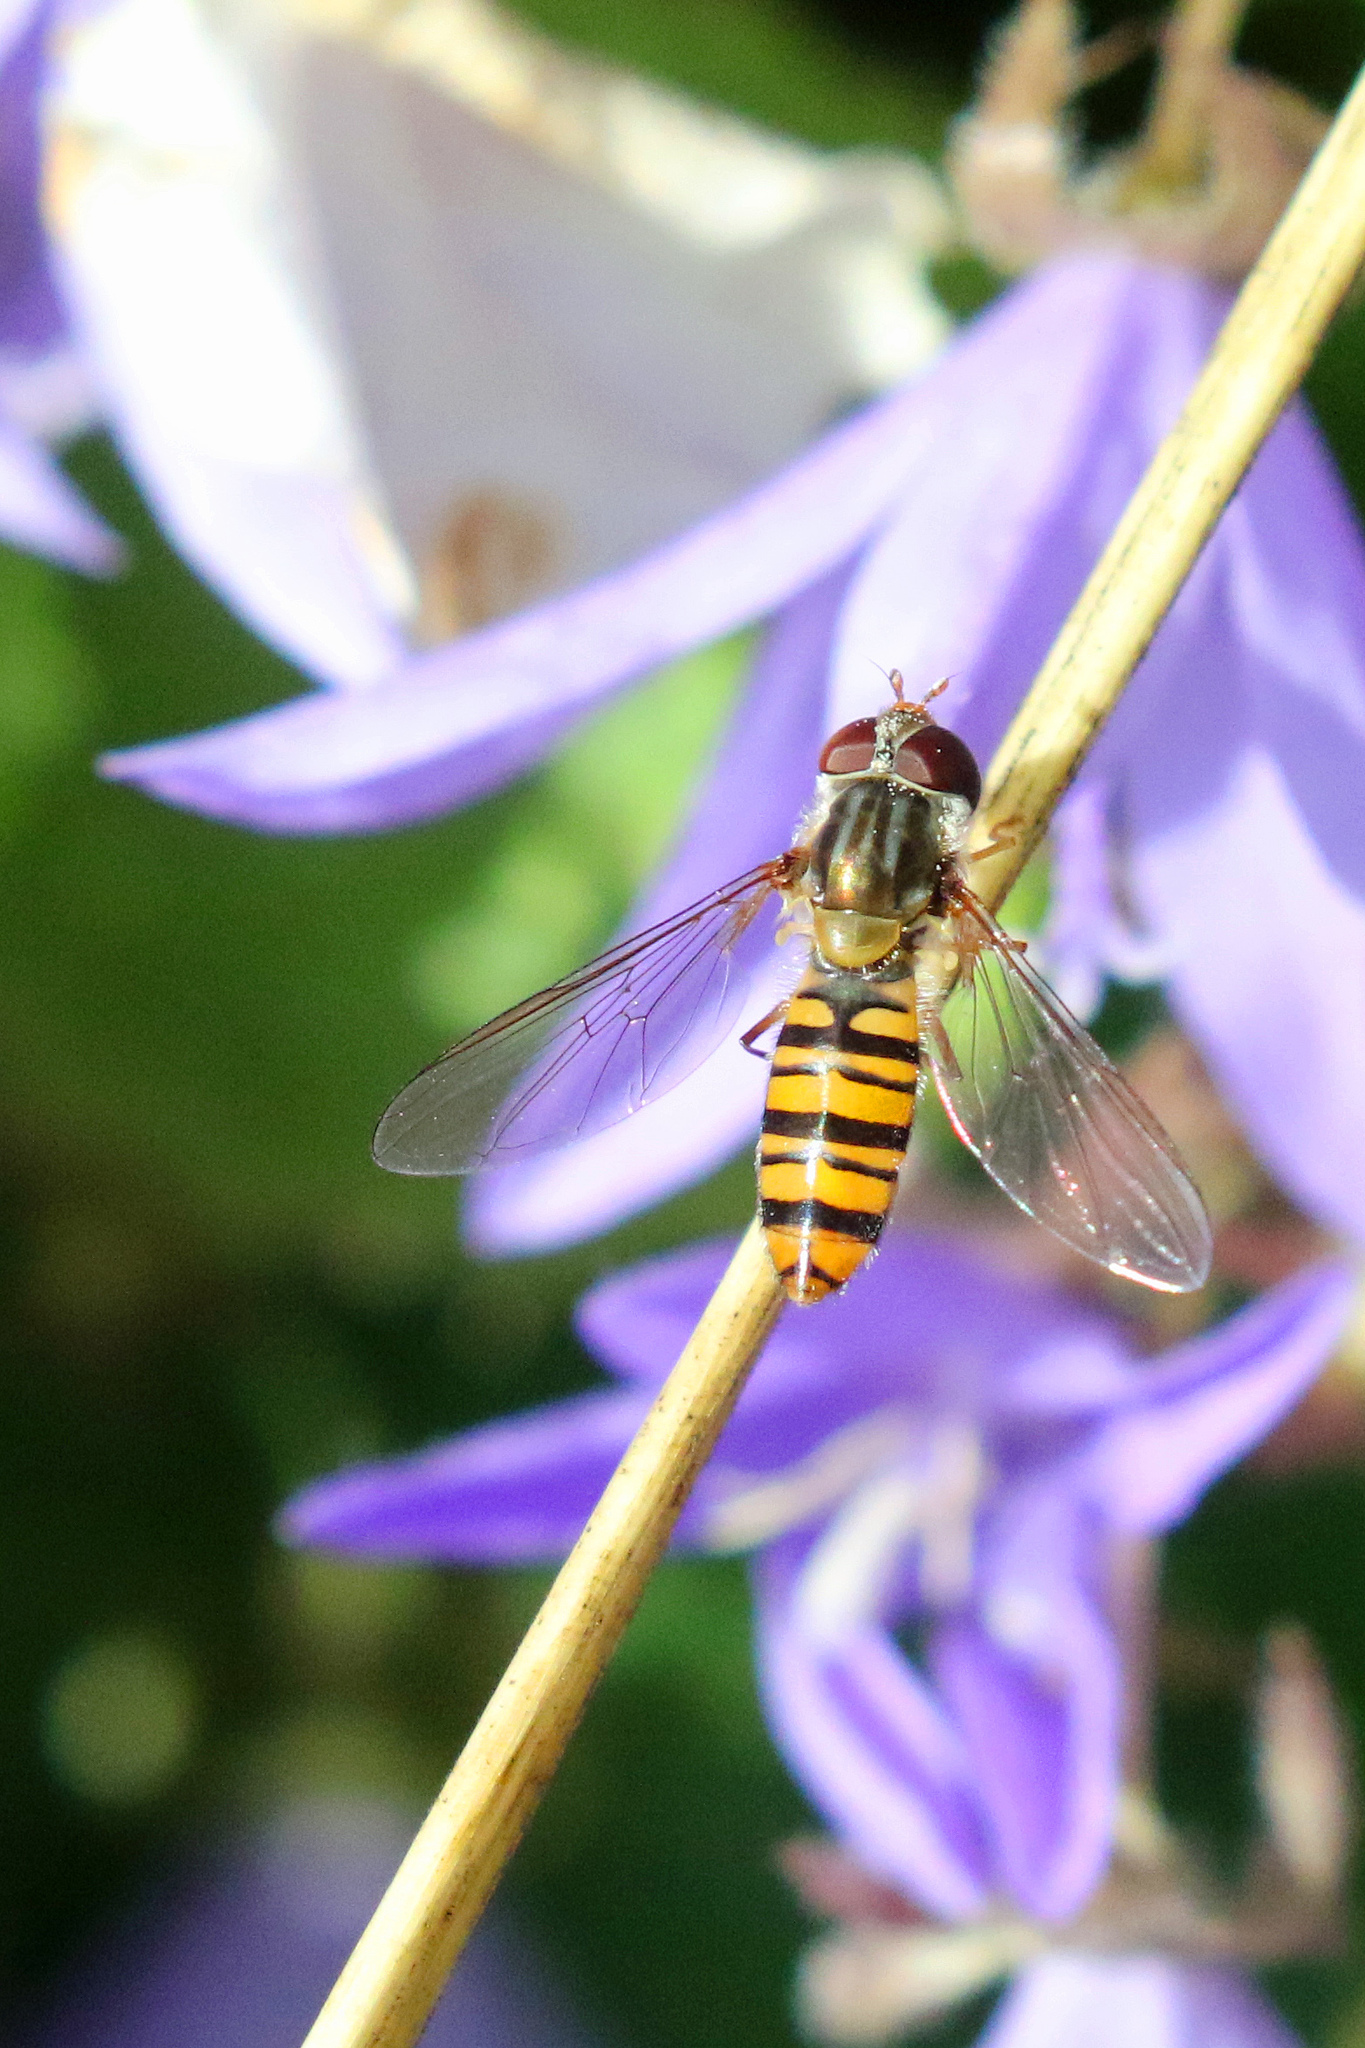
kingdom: Animalia
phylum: Arthropoda
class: Insecta
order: Diptera
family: Syrphidae
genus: Episyrphus
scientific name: Episyrphus balteatus
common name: Marmalade hoverfly
